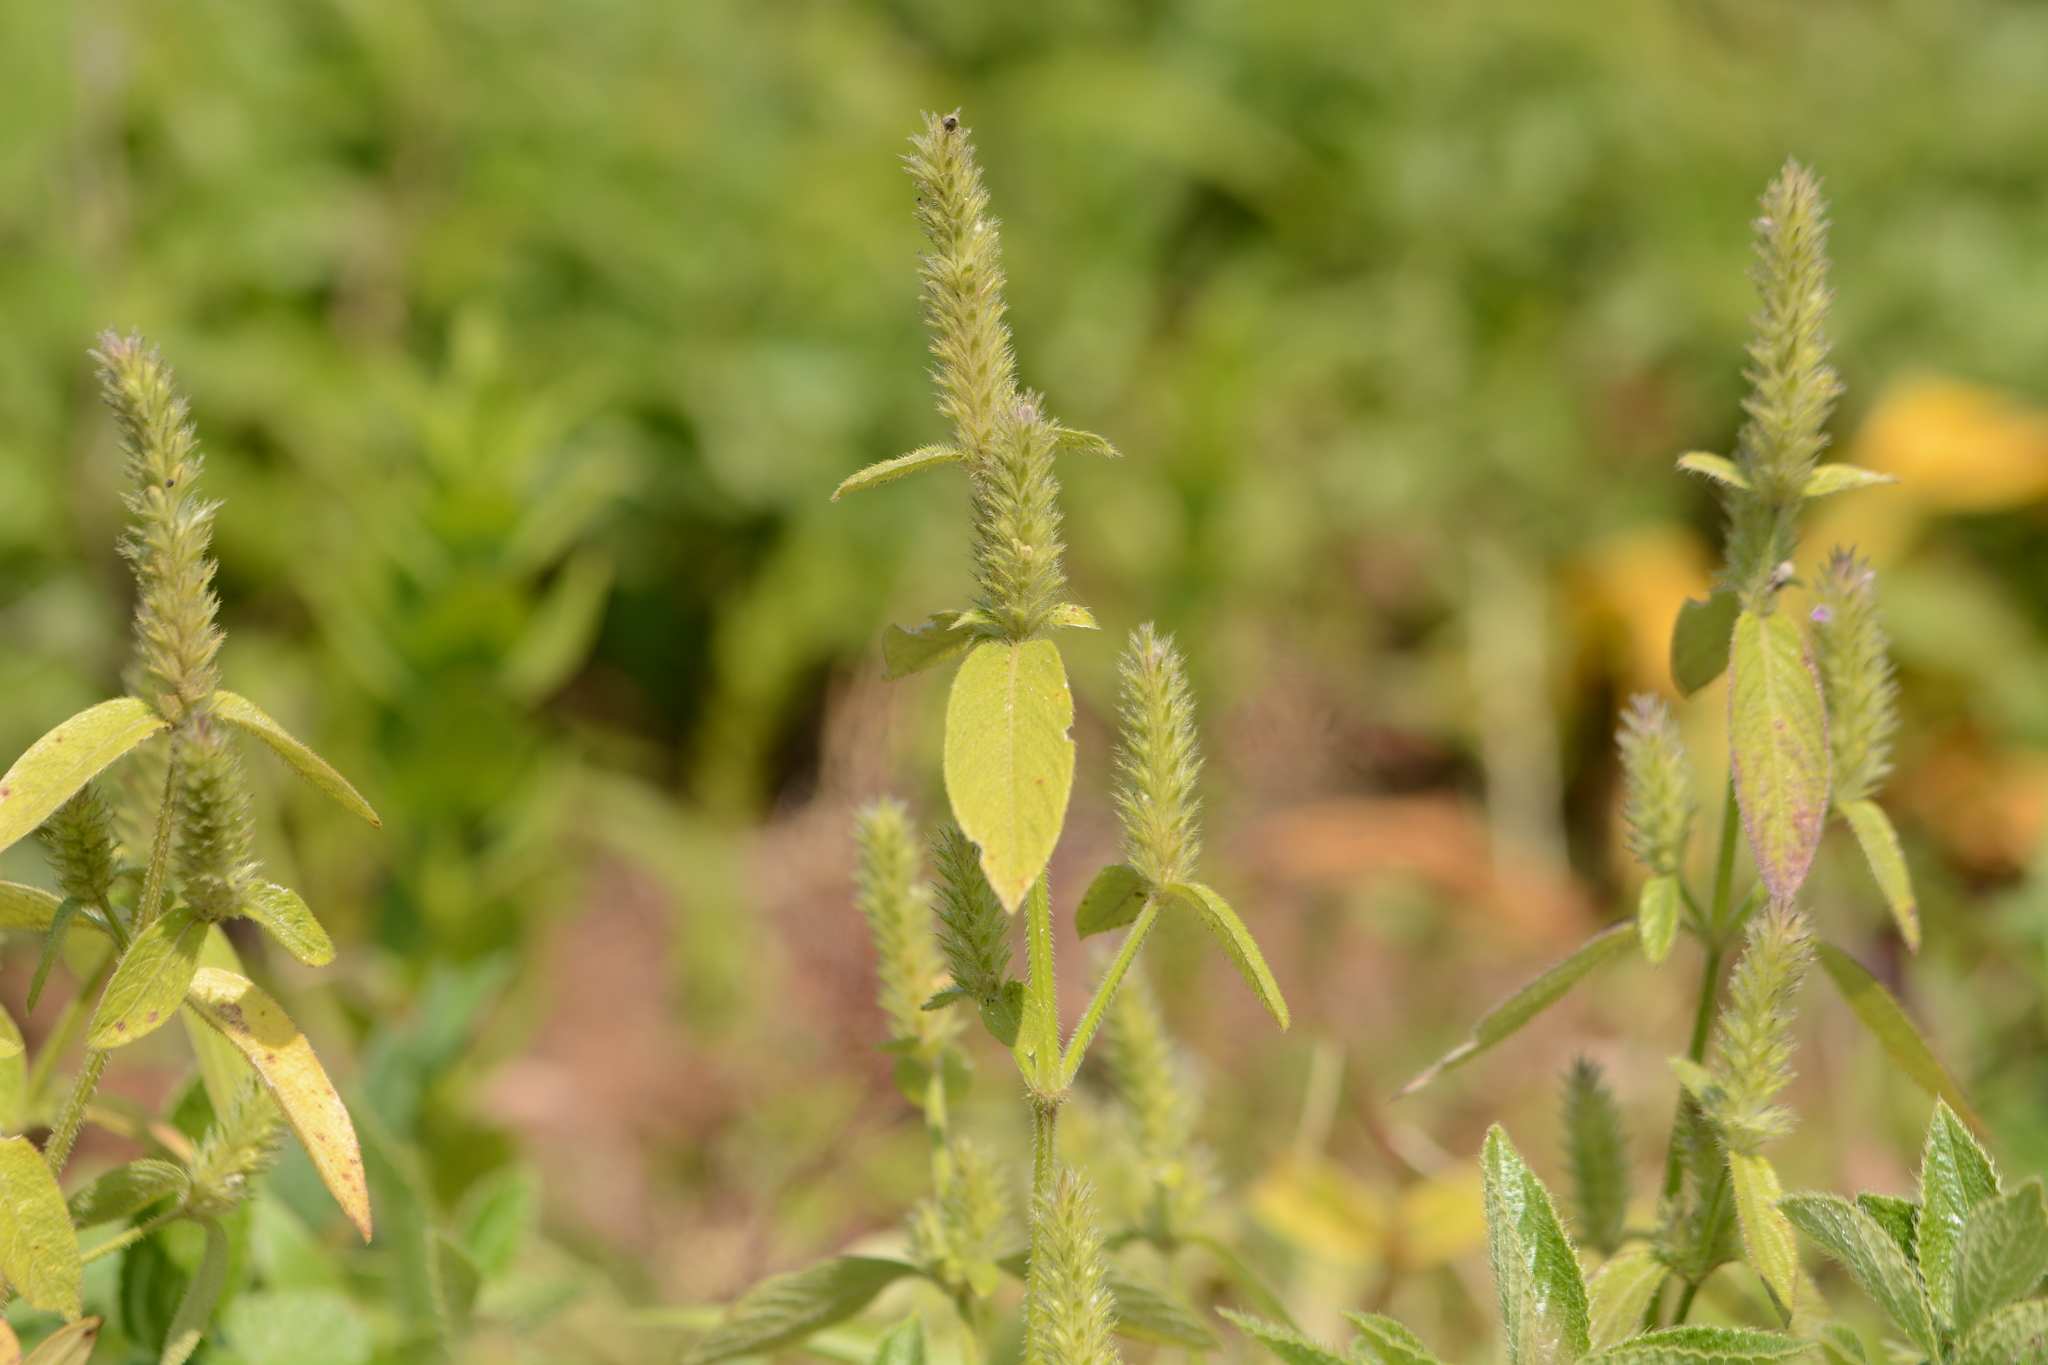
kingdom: Plantae
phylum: Tracheophyta
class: Magnoliopsida
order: Lamiales
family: Acanthaceae
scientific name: Acanthaceae
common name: Acanthaceae
